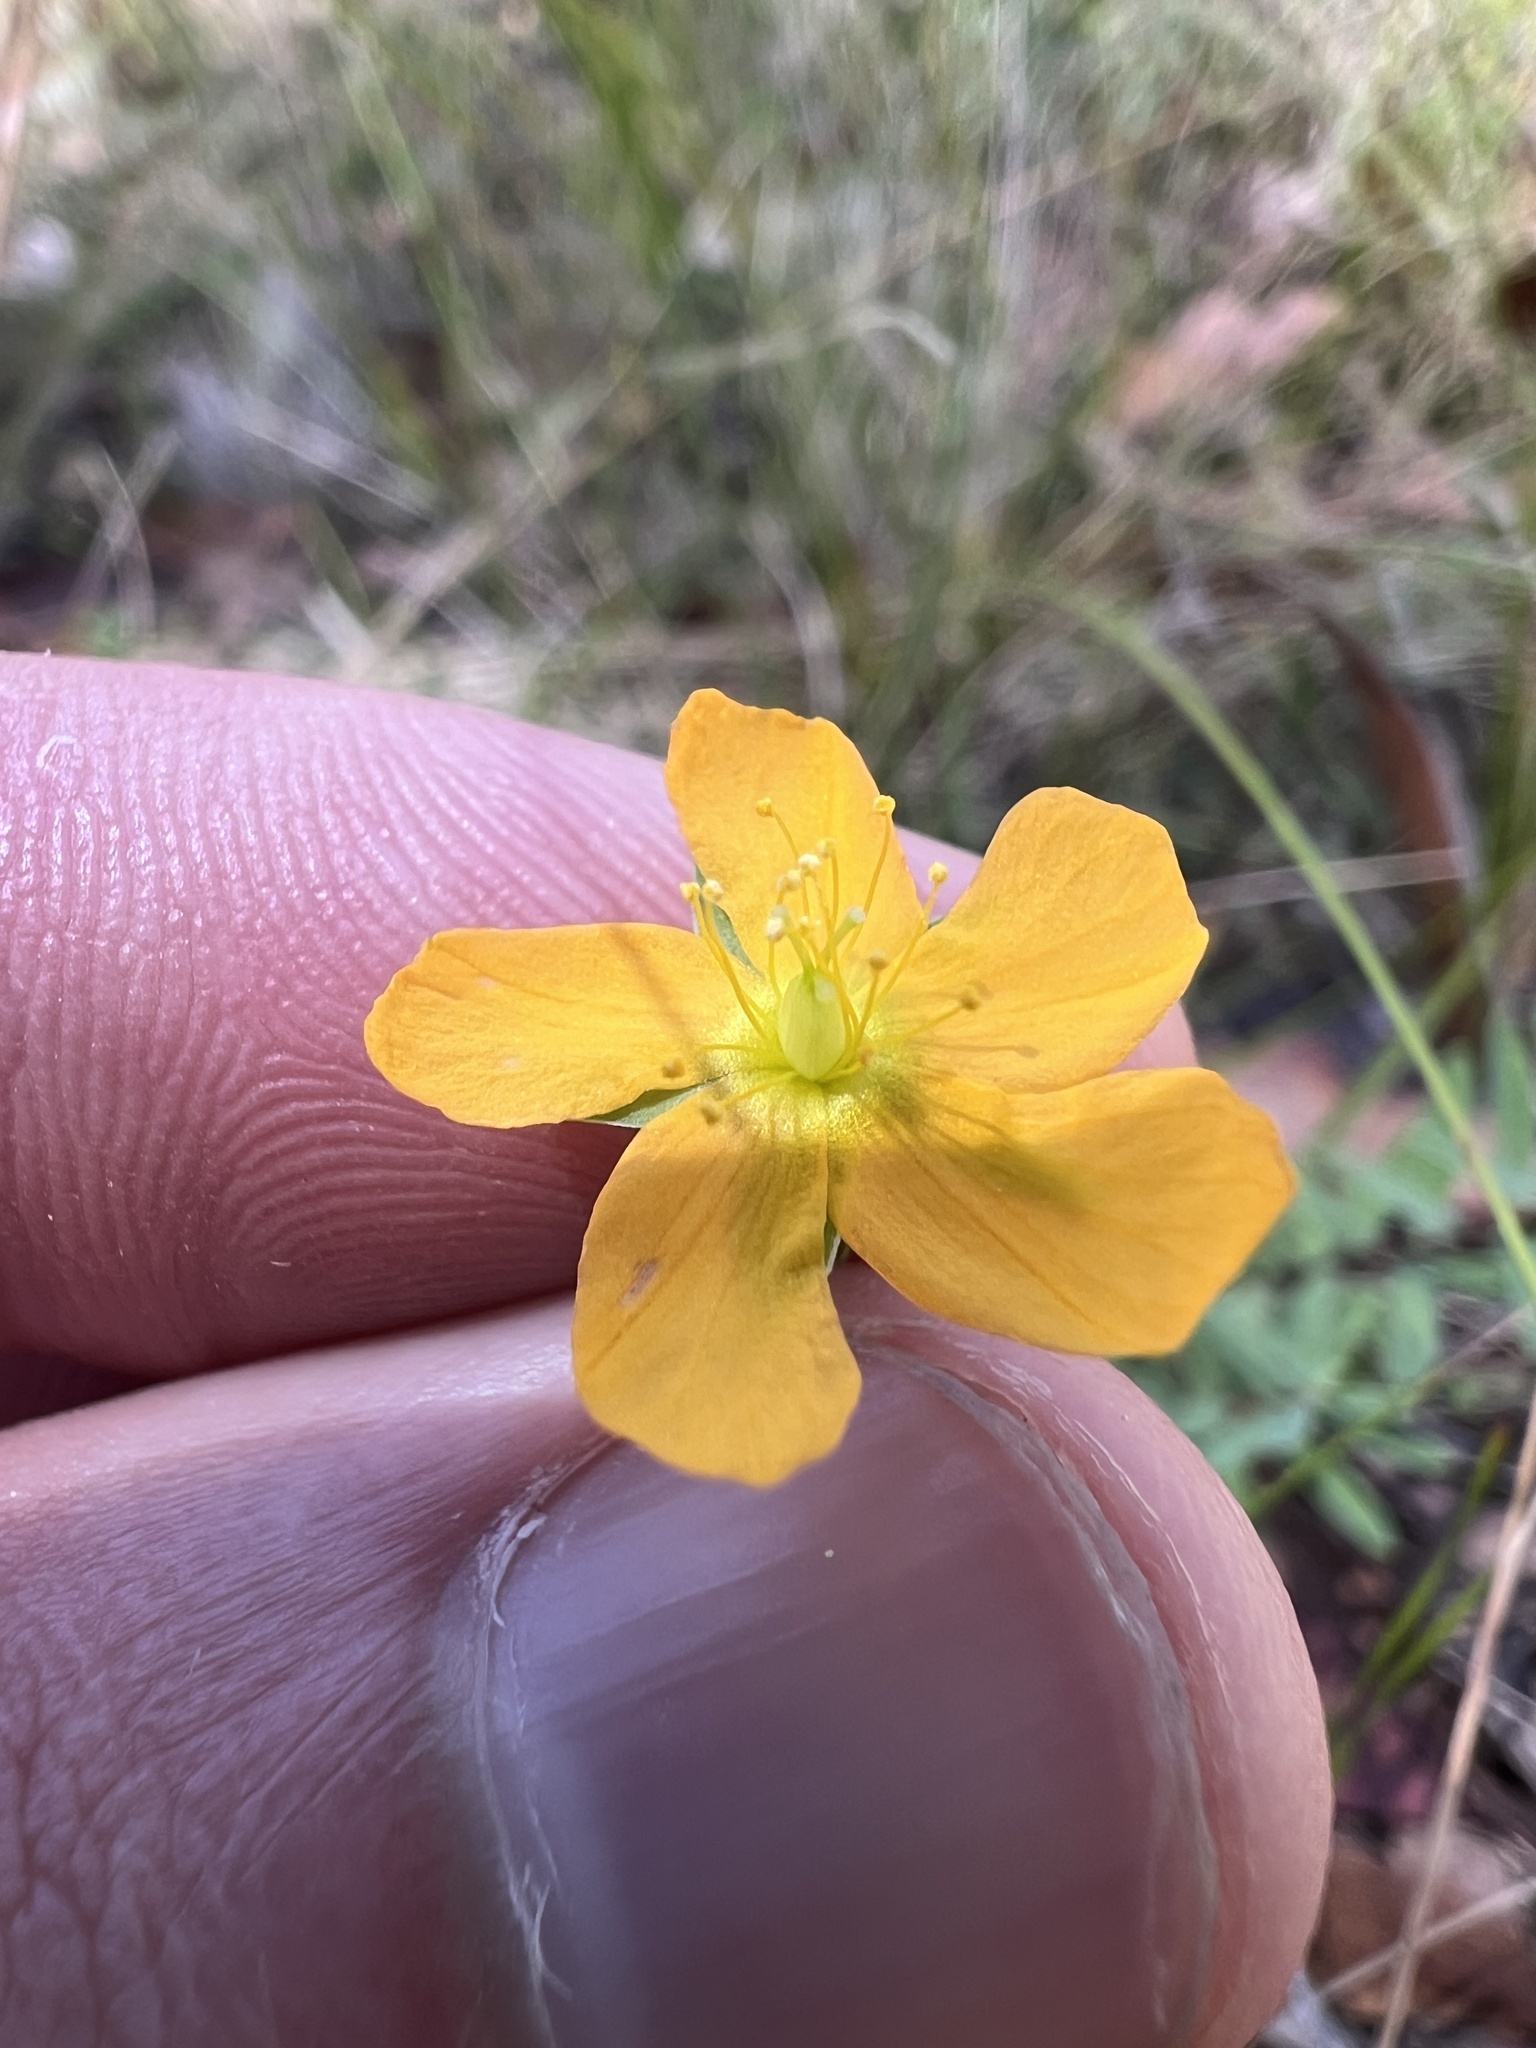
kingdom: Plantae
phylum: Tracheophyta
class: Magnoliopsida
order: Malpighiales
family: Hypericaceae
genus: Hypericum
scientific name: Hypericum gramineum
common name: Grassy st. johnswort
